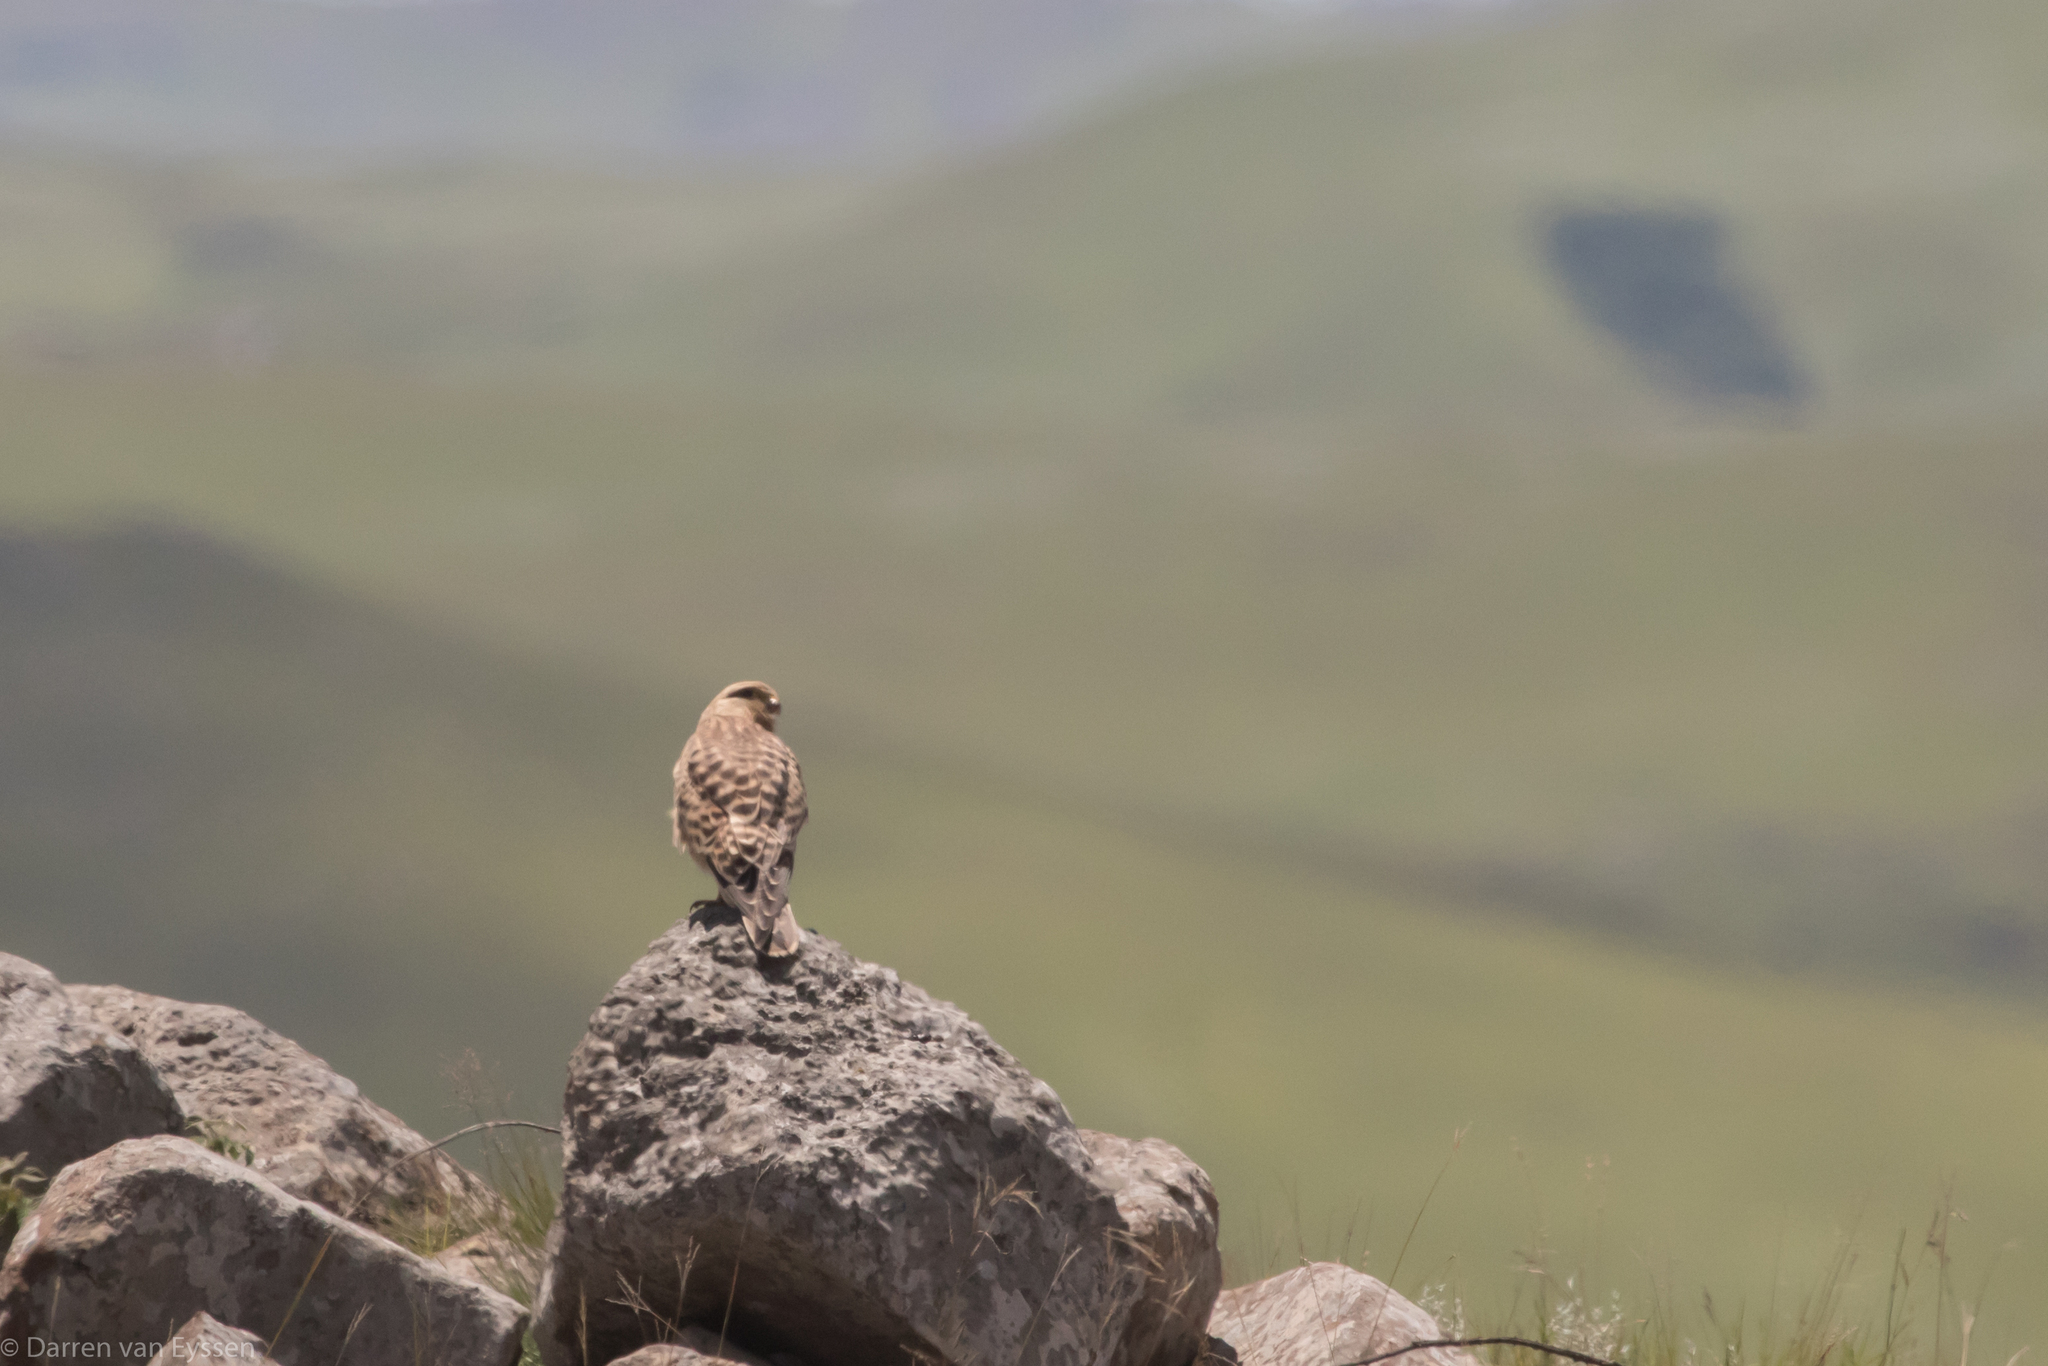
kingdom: Animalia
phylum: Chordata
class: Aves
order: Falconiformes
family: Falconidae
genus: Falco
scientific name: Falco rupicoloides
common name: Greater kestrel
